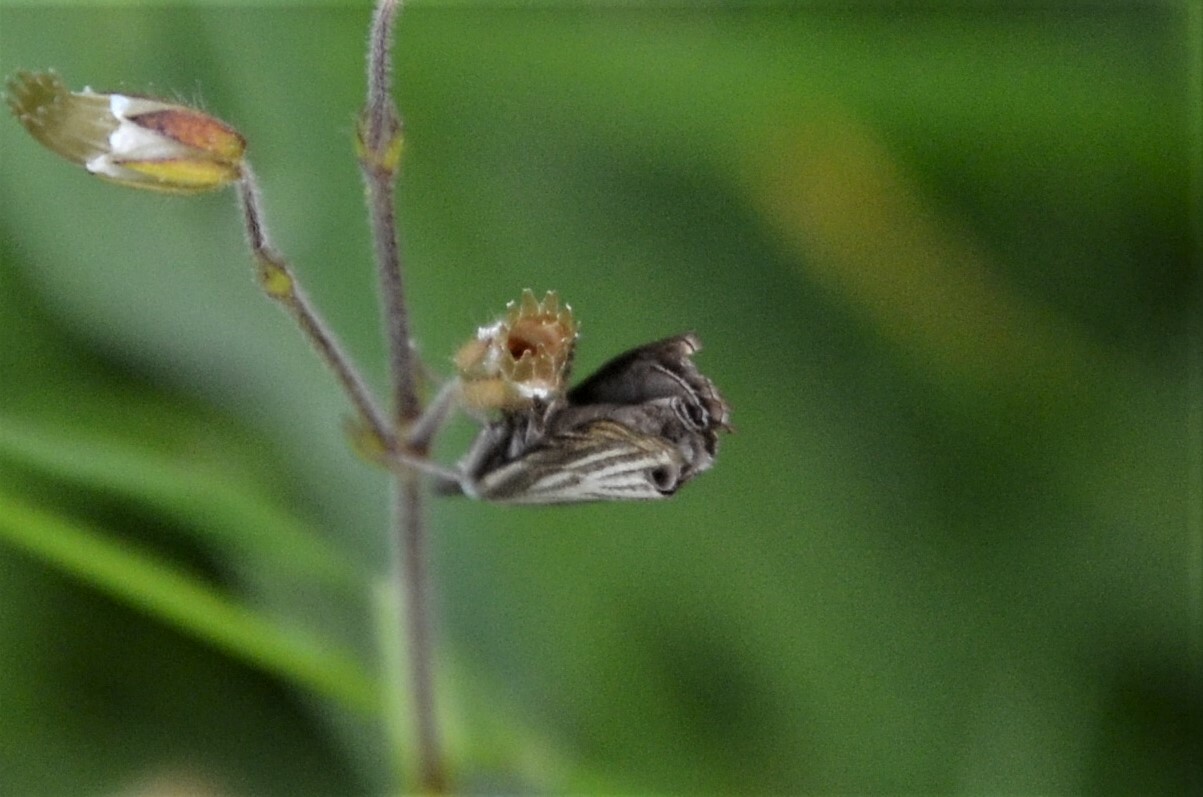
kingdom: Animalia
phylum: Arthropoda
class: Insecta
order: Lepidoptera
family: Crambidae
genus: Chrysoteuchia
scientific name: Chrysoteuchia culmella
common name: Garden grass-veneer
